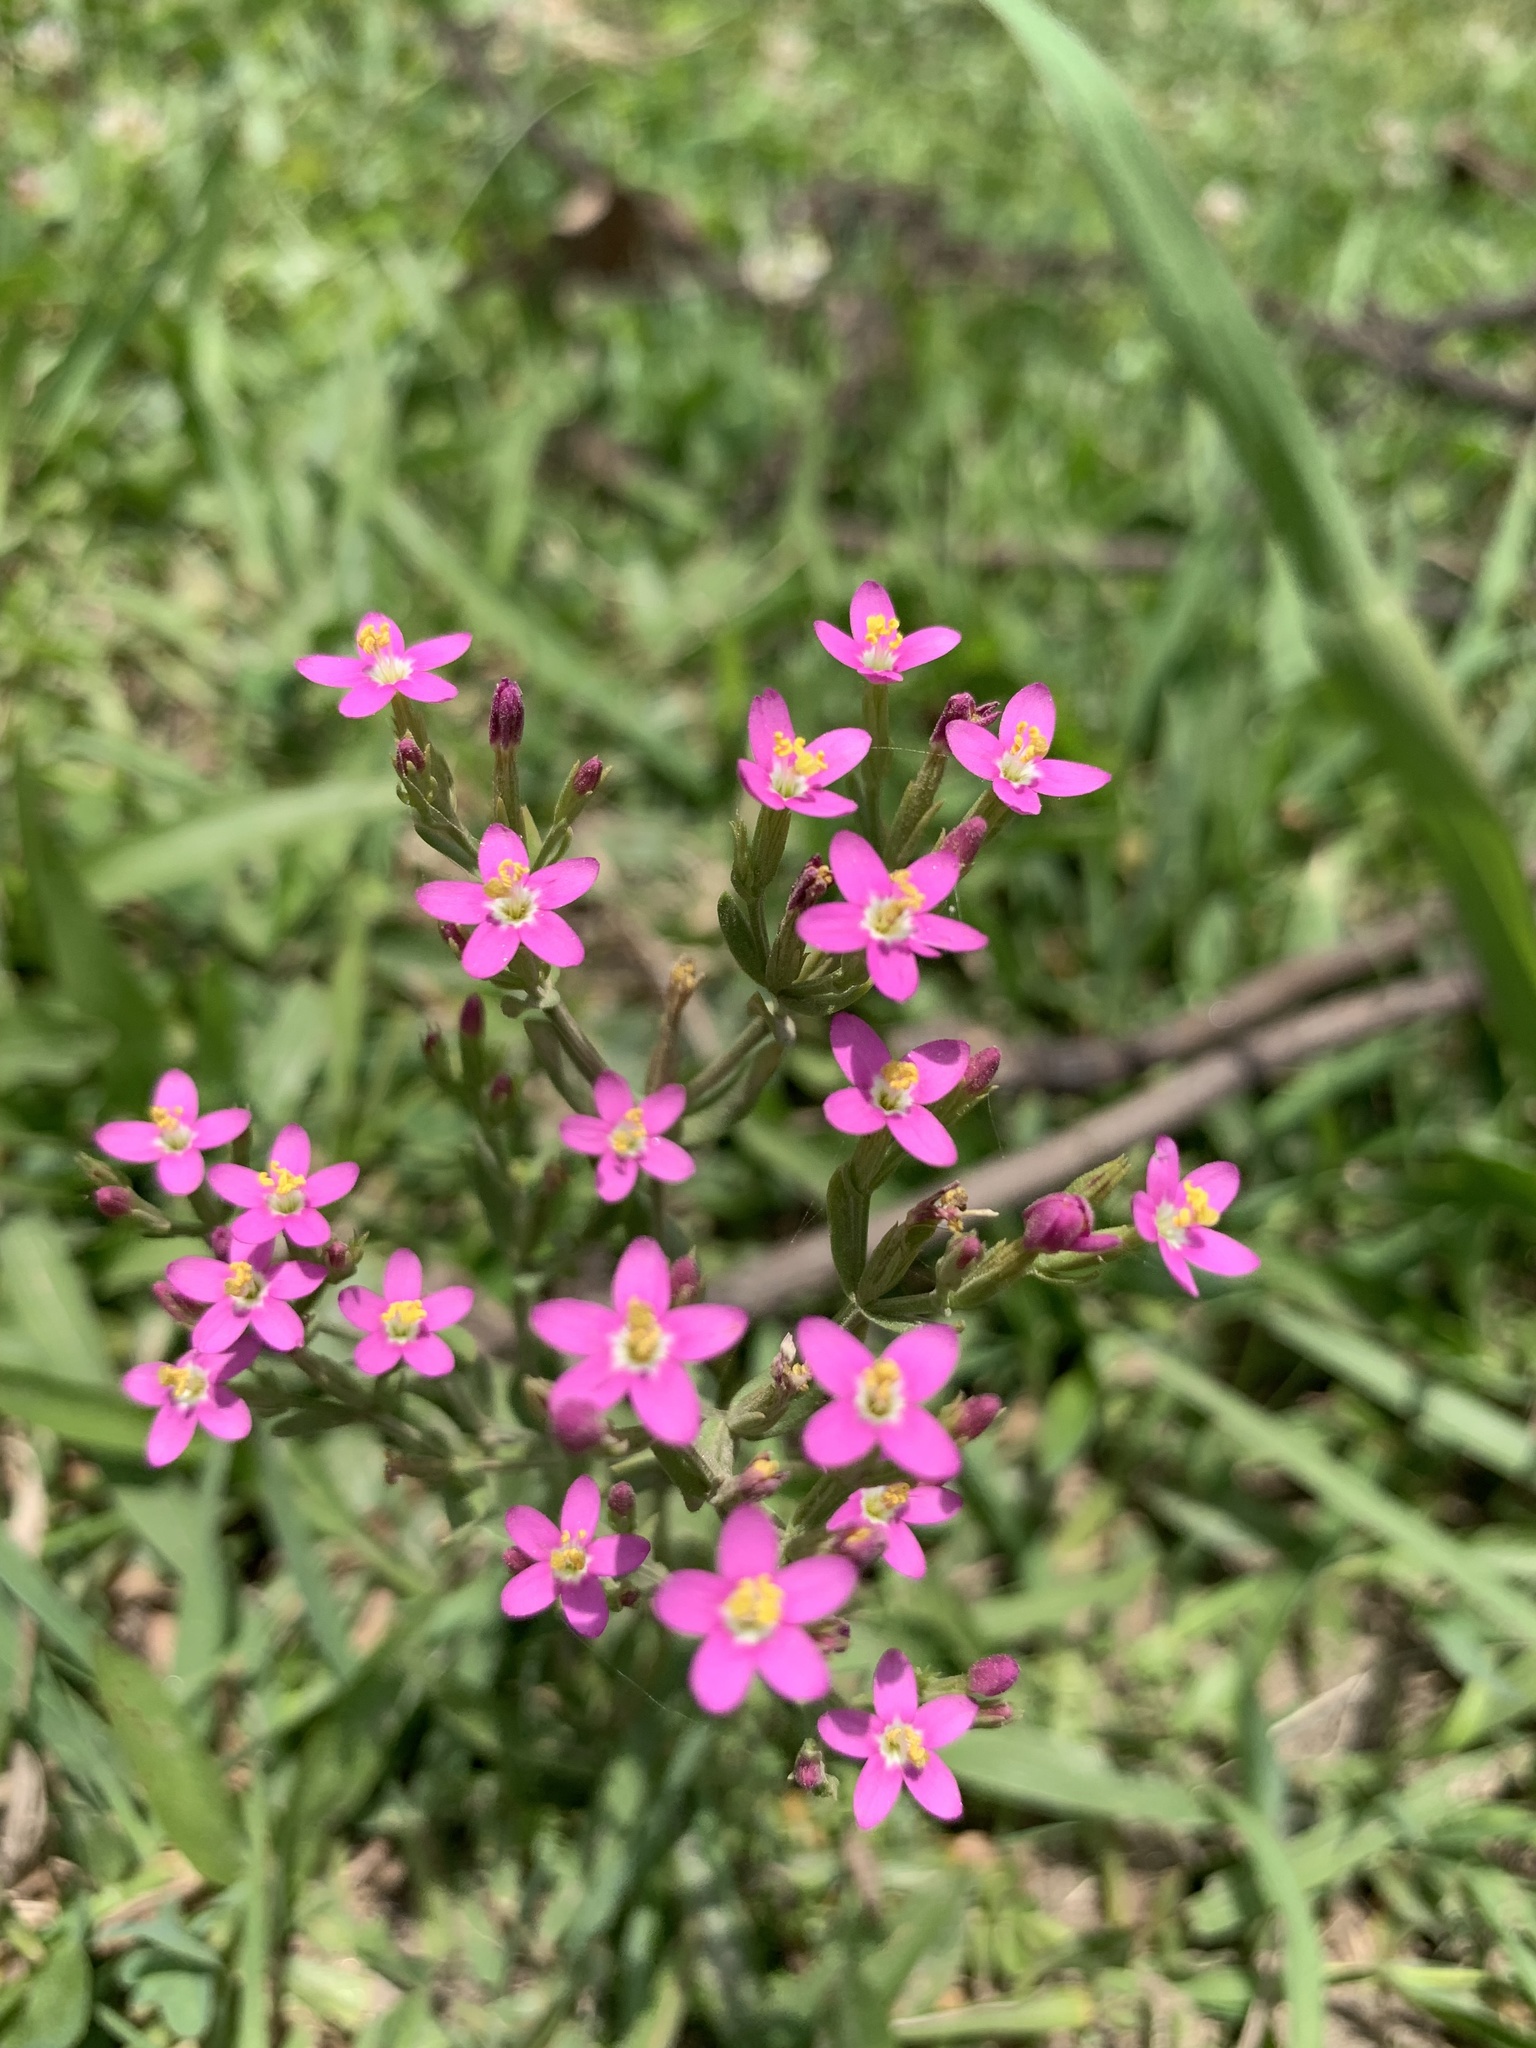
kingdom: Plantae
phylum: Tracheophyta
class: Magnoliopsida
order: Gentianales
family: Gentianaceae
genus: Centaurium
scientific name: Centaurium pulchellum
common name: Lesser centaury
